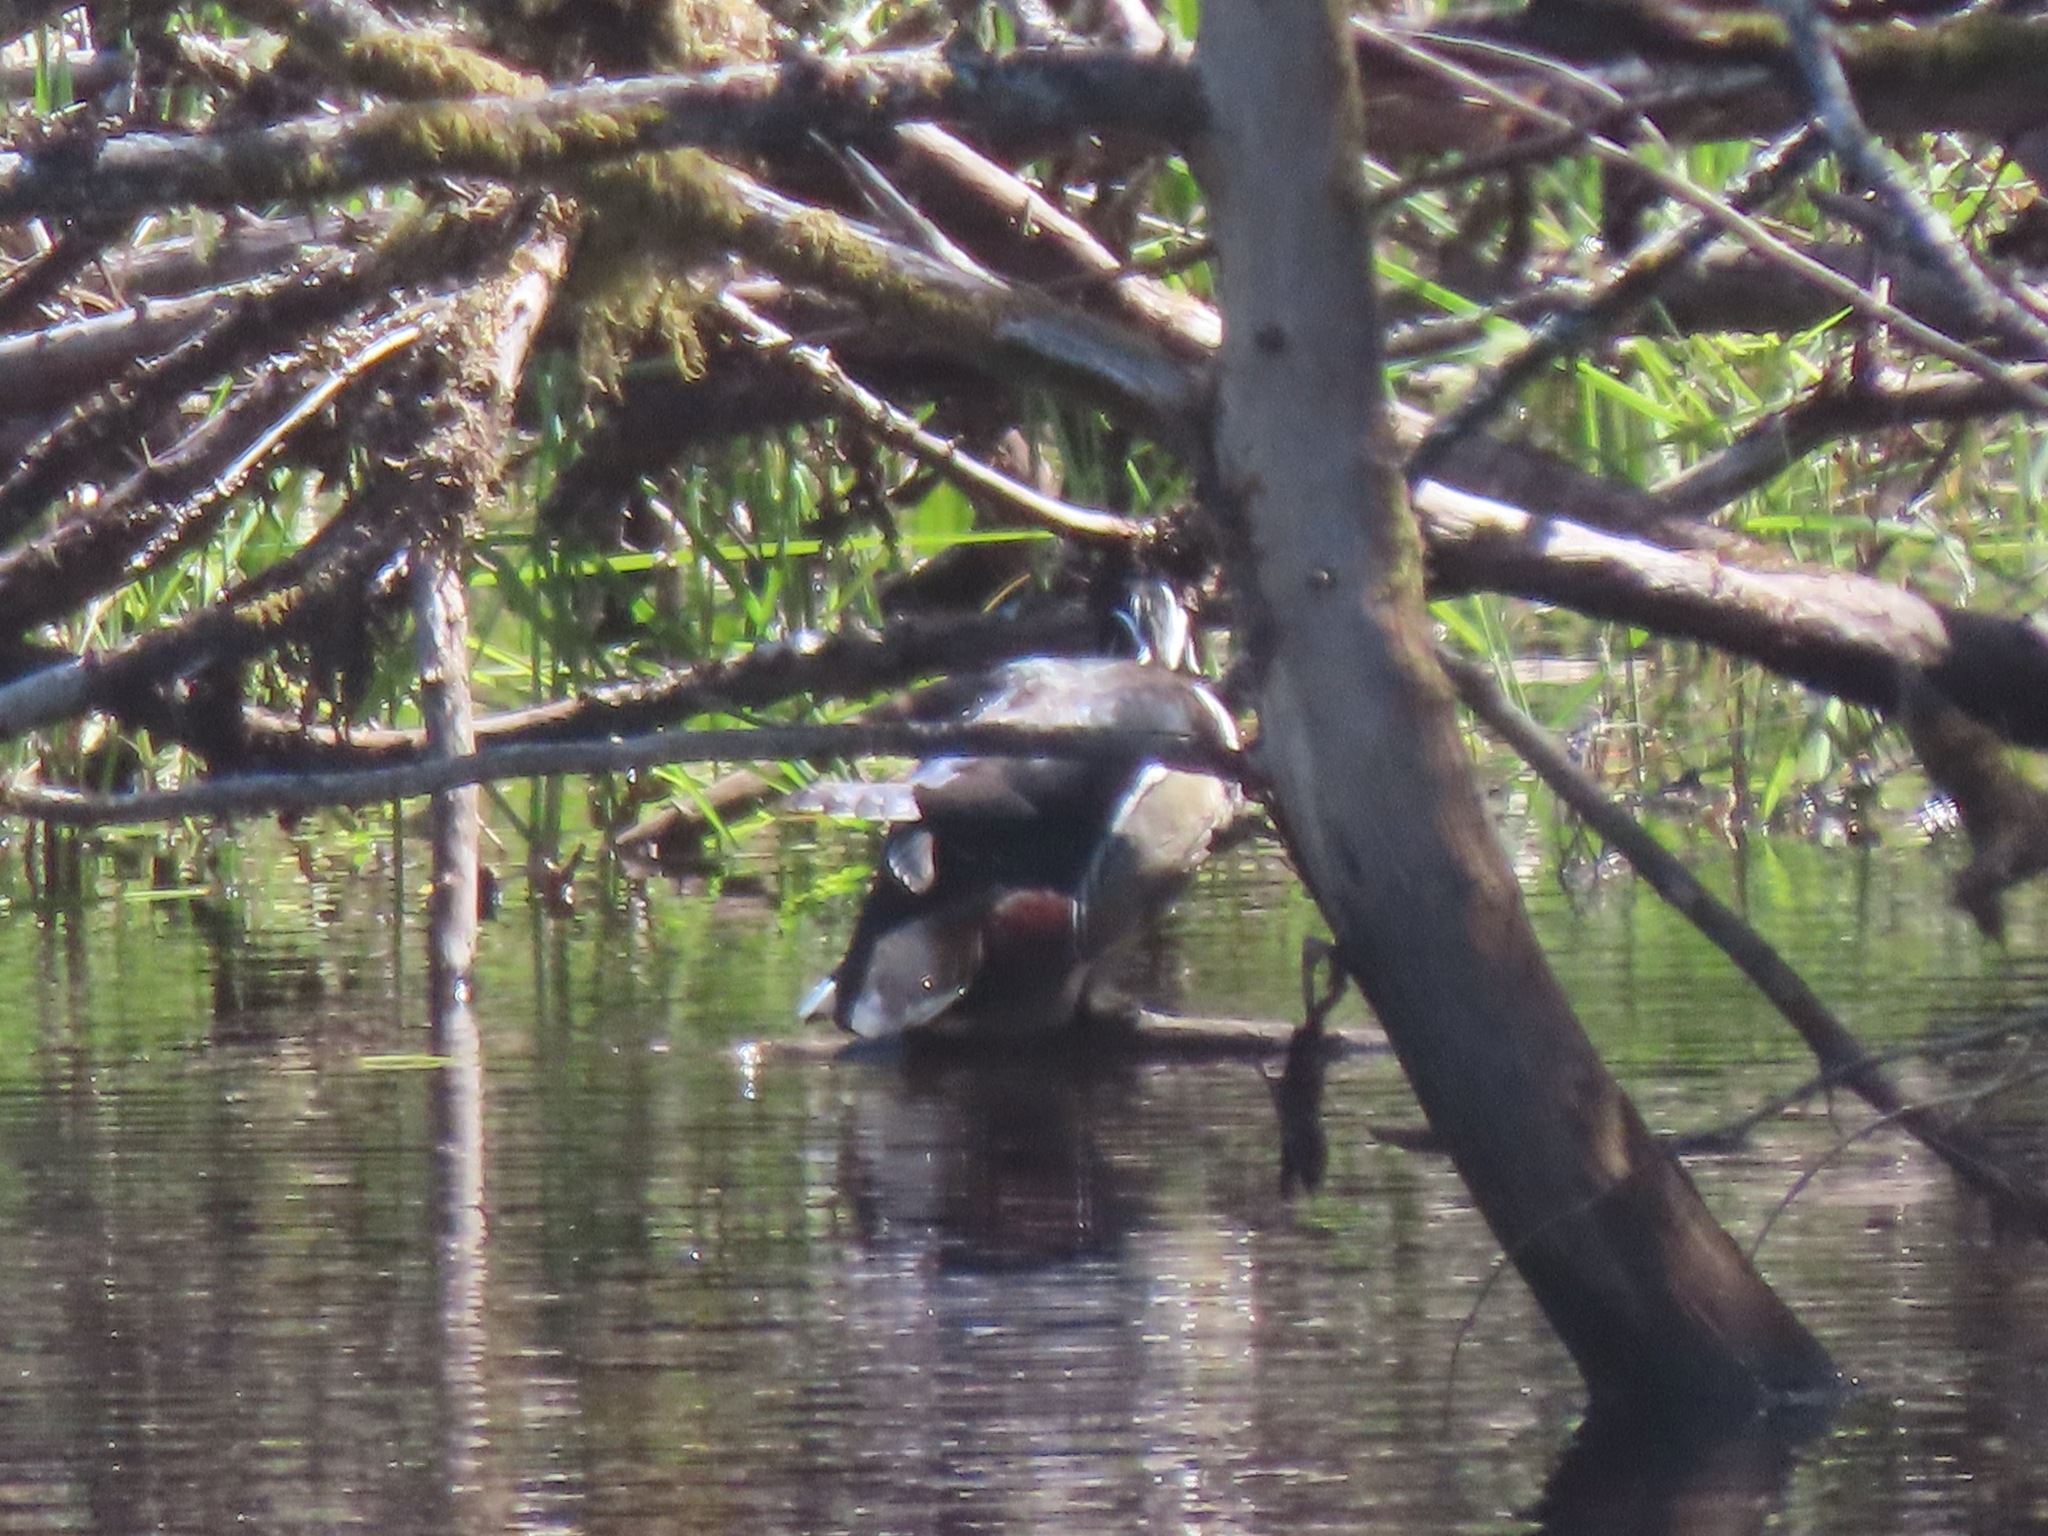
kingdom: Animalia
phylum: Chordata
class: Aves
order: Anseriformes
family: Anatidae
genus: Aix
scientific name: Aix sponsa
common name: Wood duck
